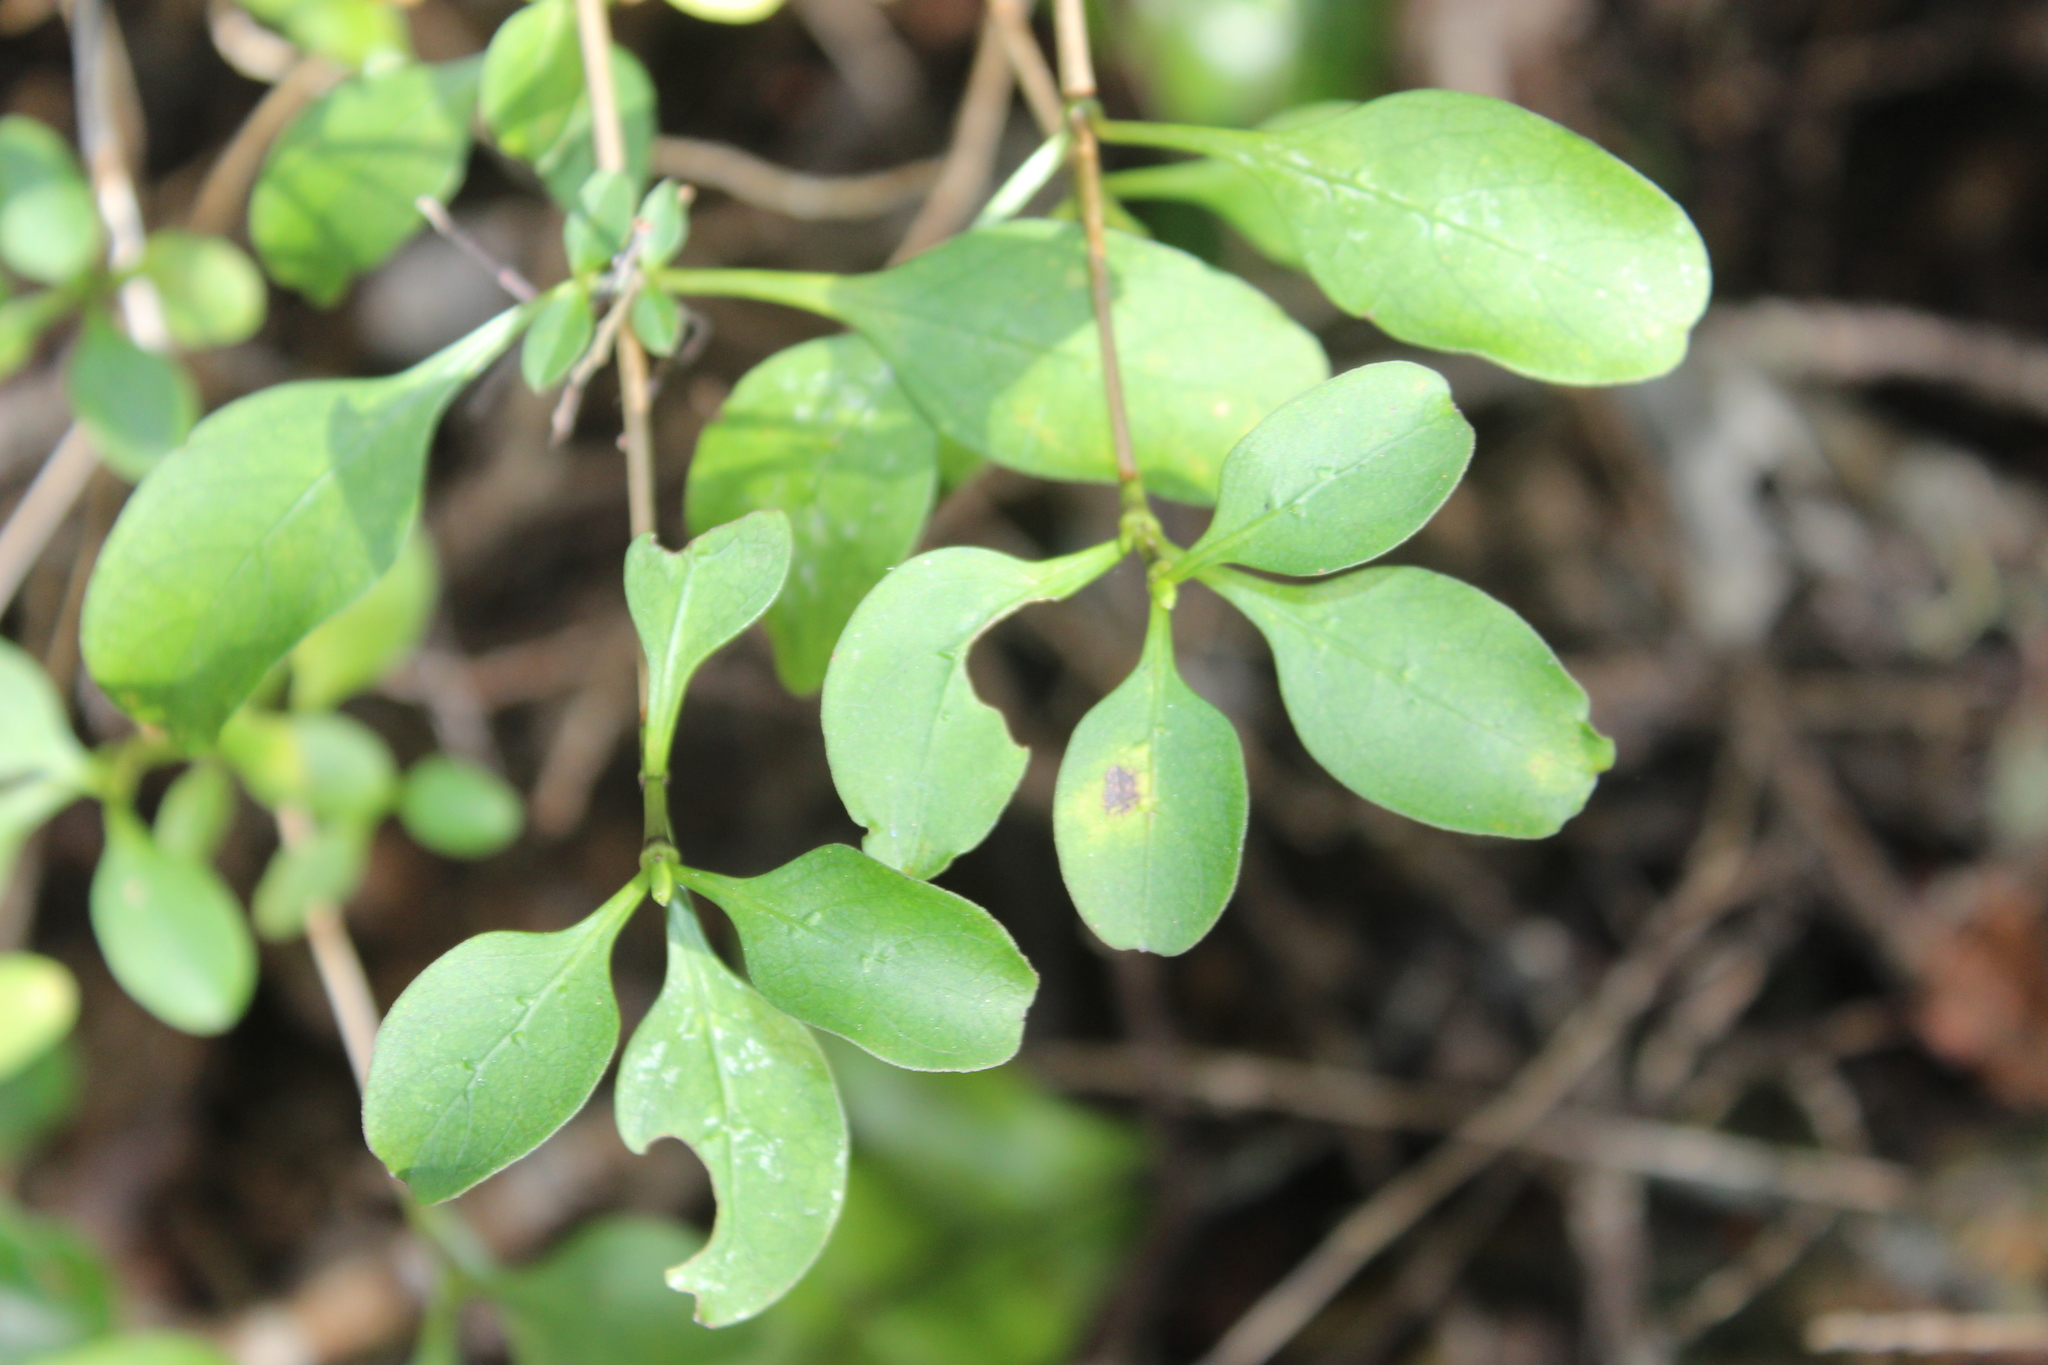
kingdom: Plantae
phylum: Tracheophyta
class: Magnoliopsida
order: Gentianales
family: Rubiaceae
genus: Coprosma
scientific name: Coprosma foetidissima
